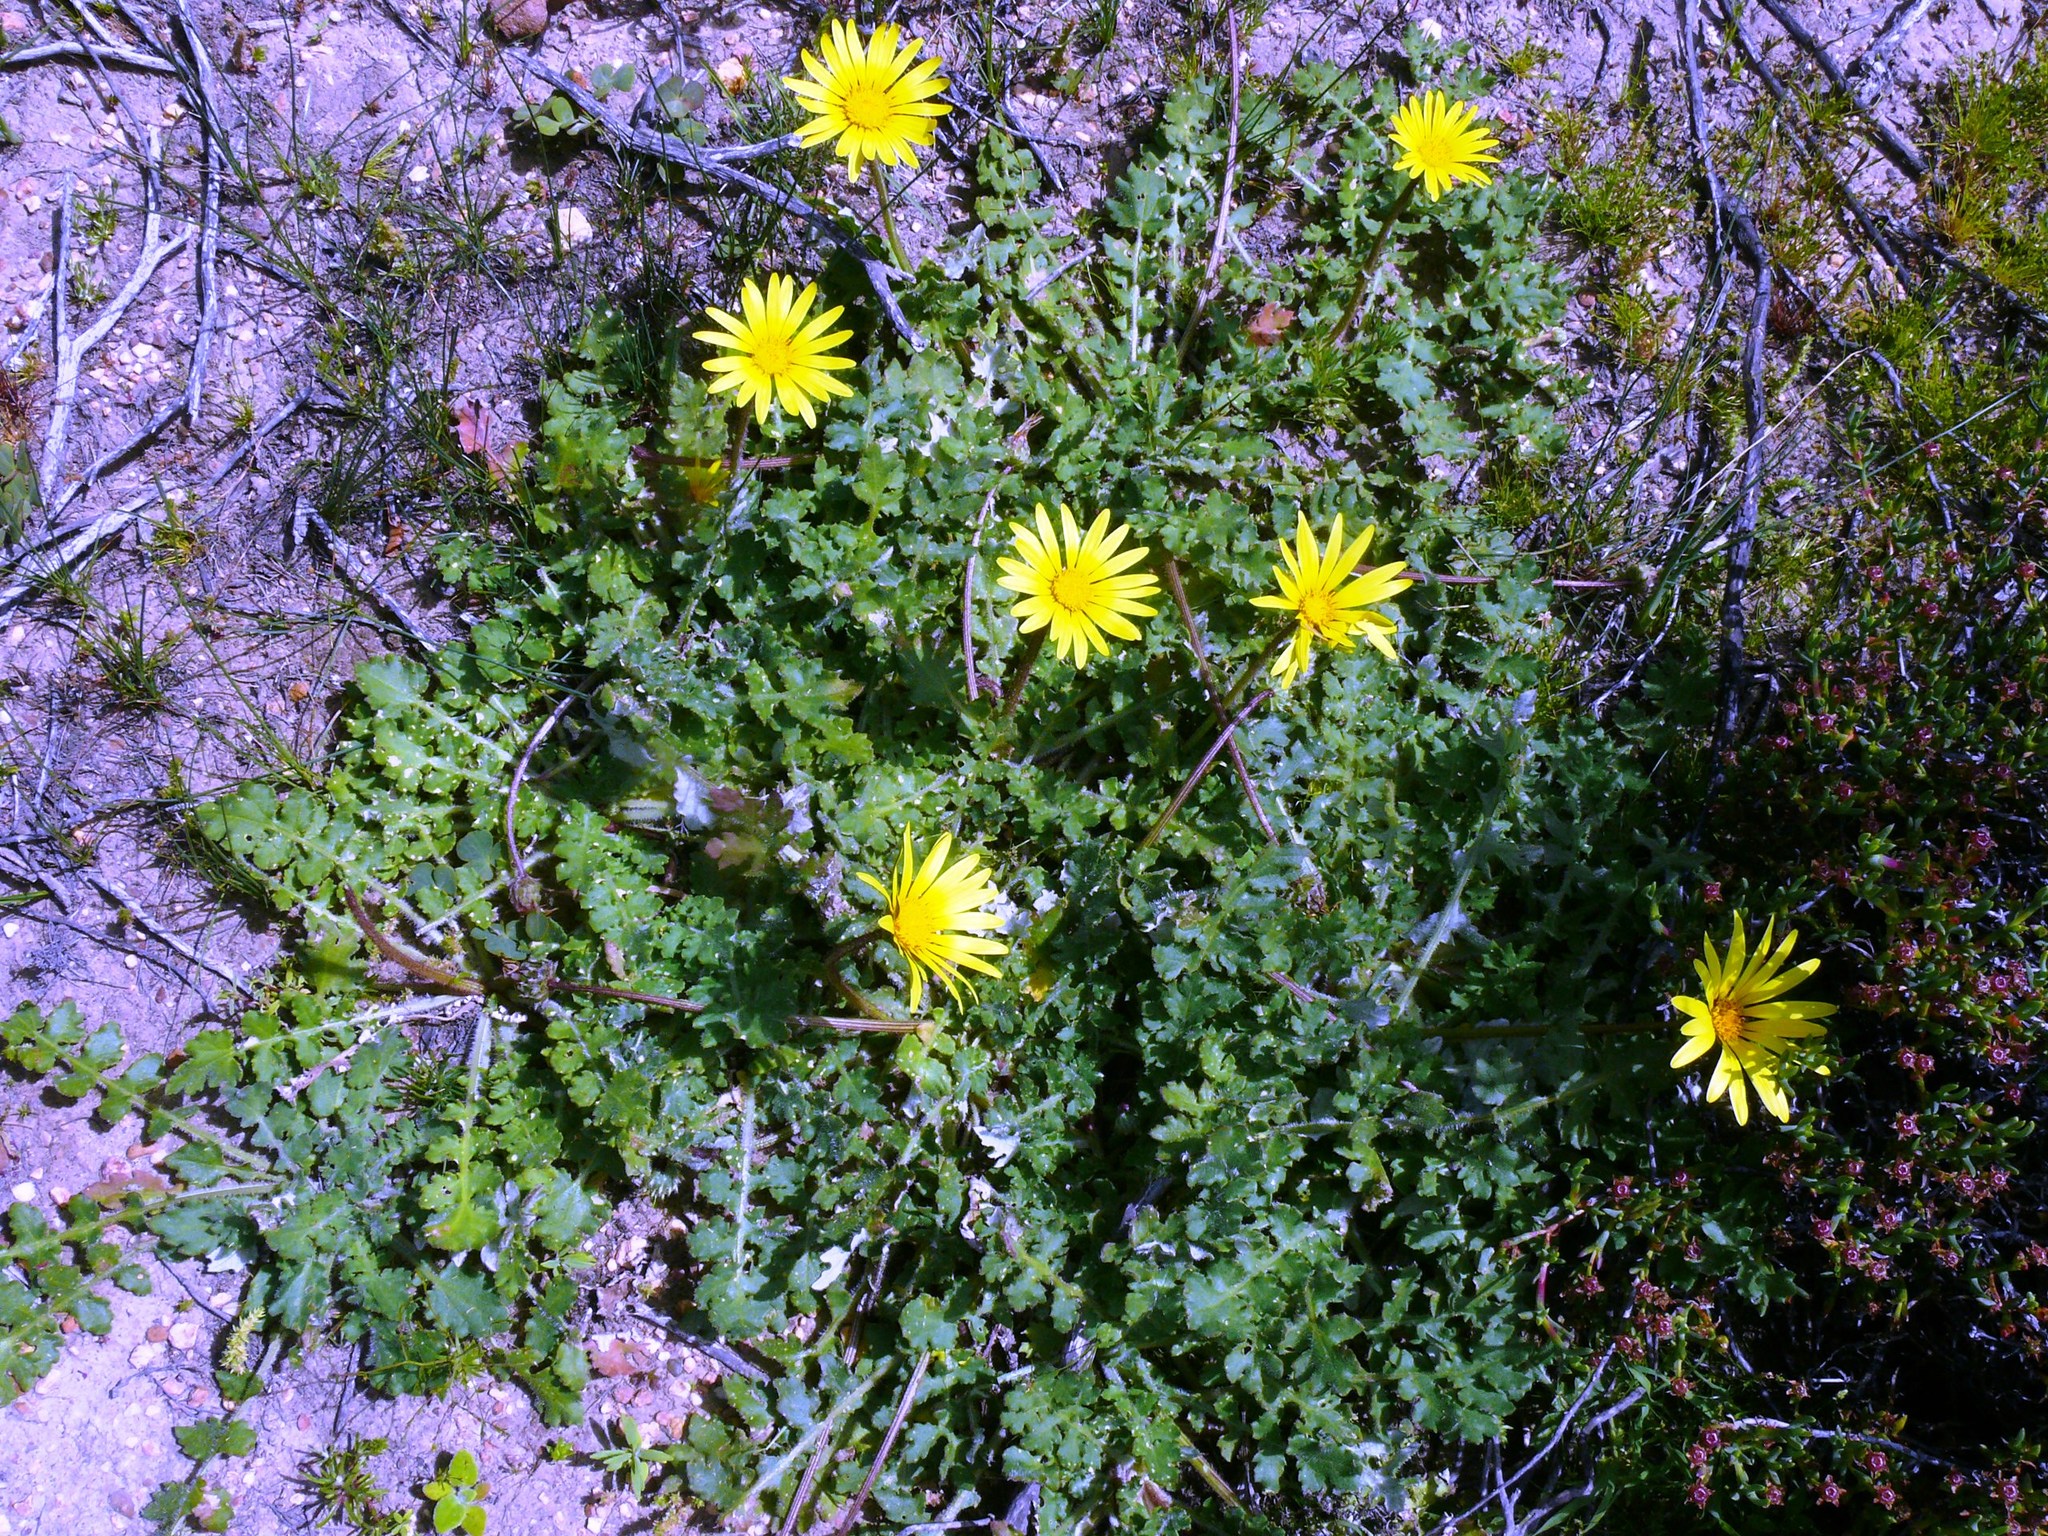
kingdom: Plantae
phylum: Tracheophyta
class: Magnoliopsida
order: Asterales
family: Asteraceae
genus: Arctotheca
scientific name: Arctotheca prostrata
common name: Capeweed
